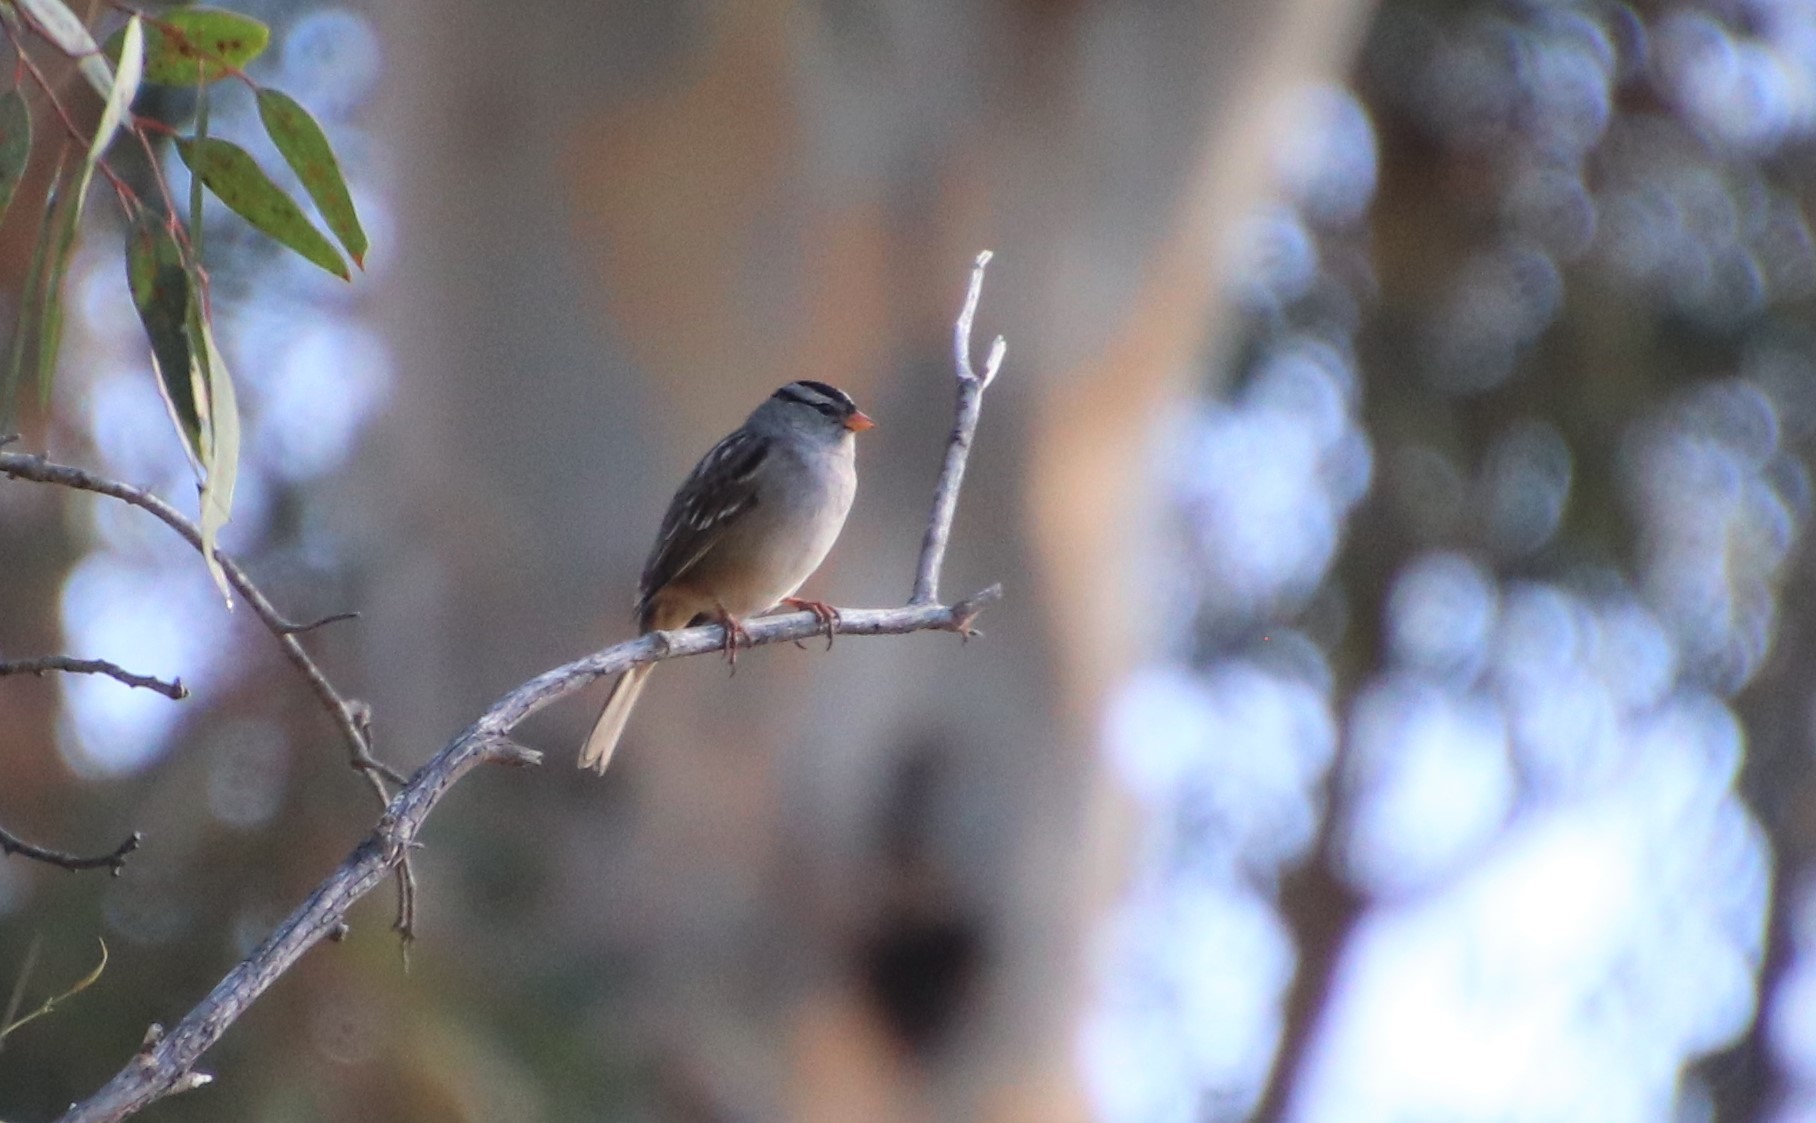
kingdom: Animalia
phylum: Chordata
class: Aves
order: Passeriformes
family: Passerellidae
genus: Zonotrichia
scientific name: Zonotrichia leucophrys
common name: White-crowned sparrow
